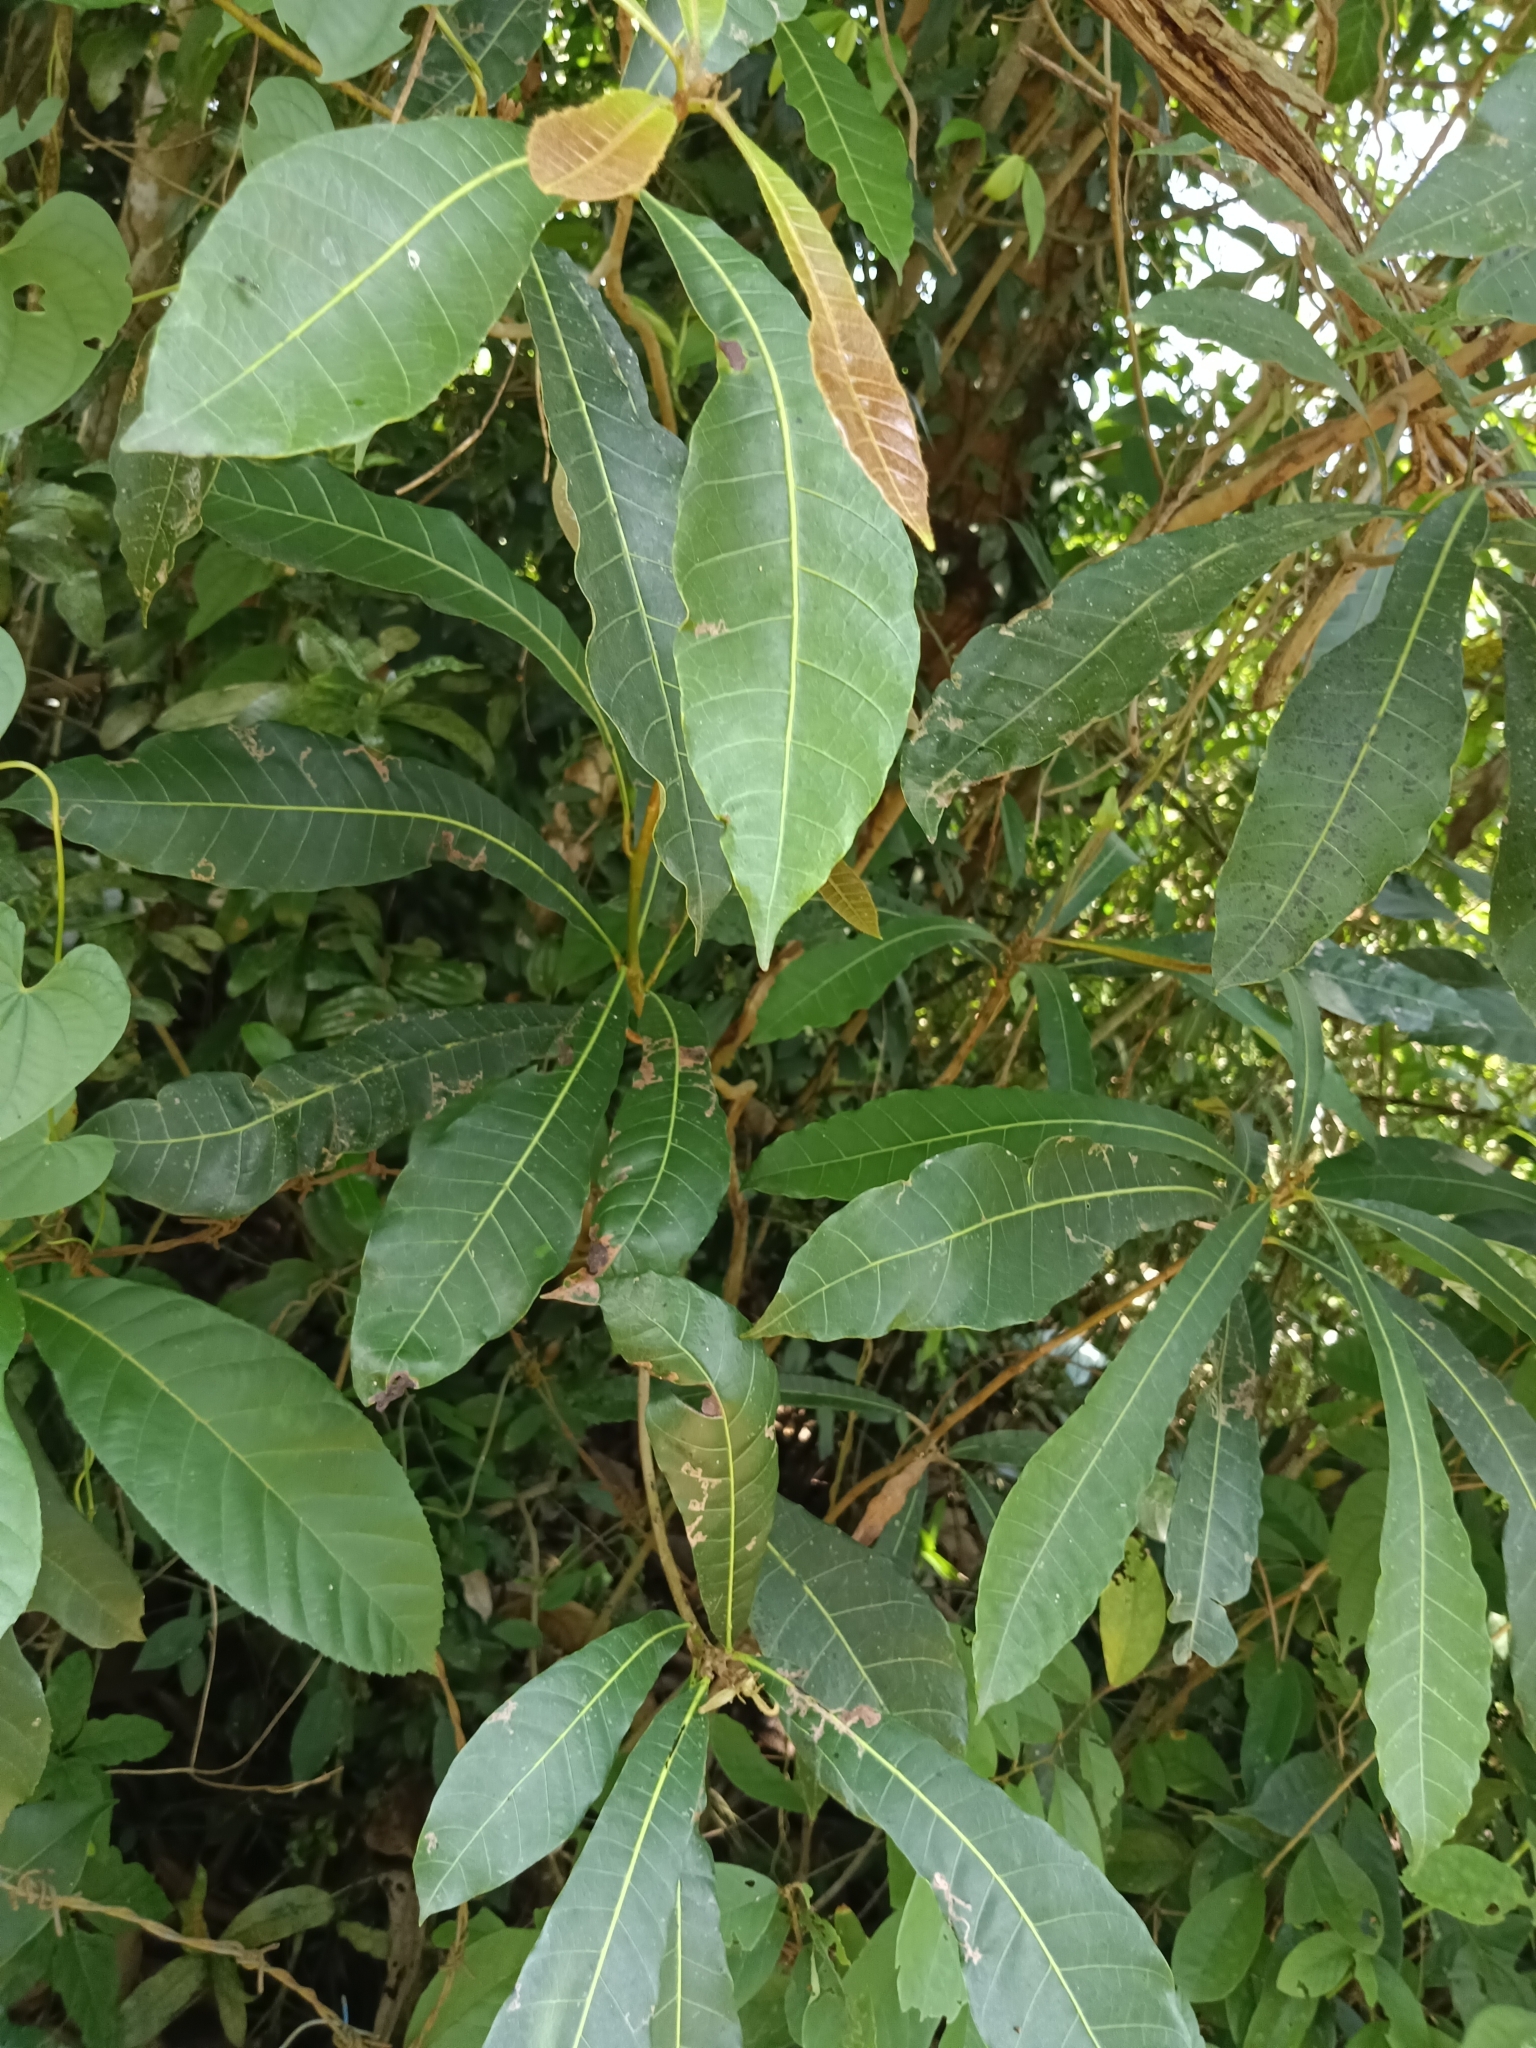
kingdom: Plantae
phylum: Tracheophyta
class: Magnoliopsida
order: Sapindales
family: Anacardiaceae
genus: Holigarna
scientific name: Holigarna arnottiana
